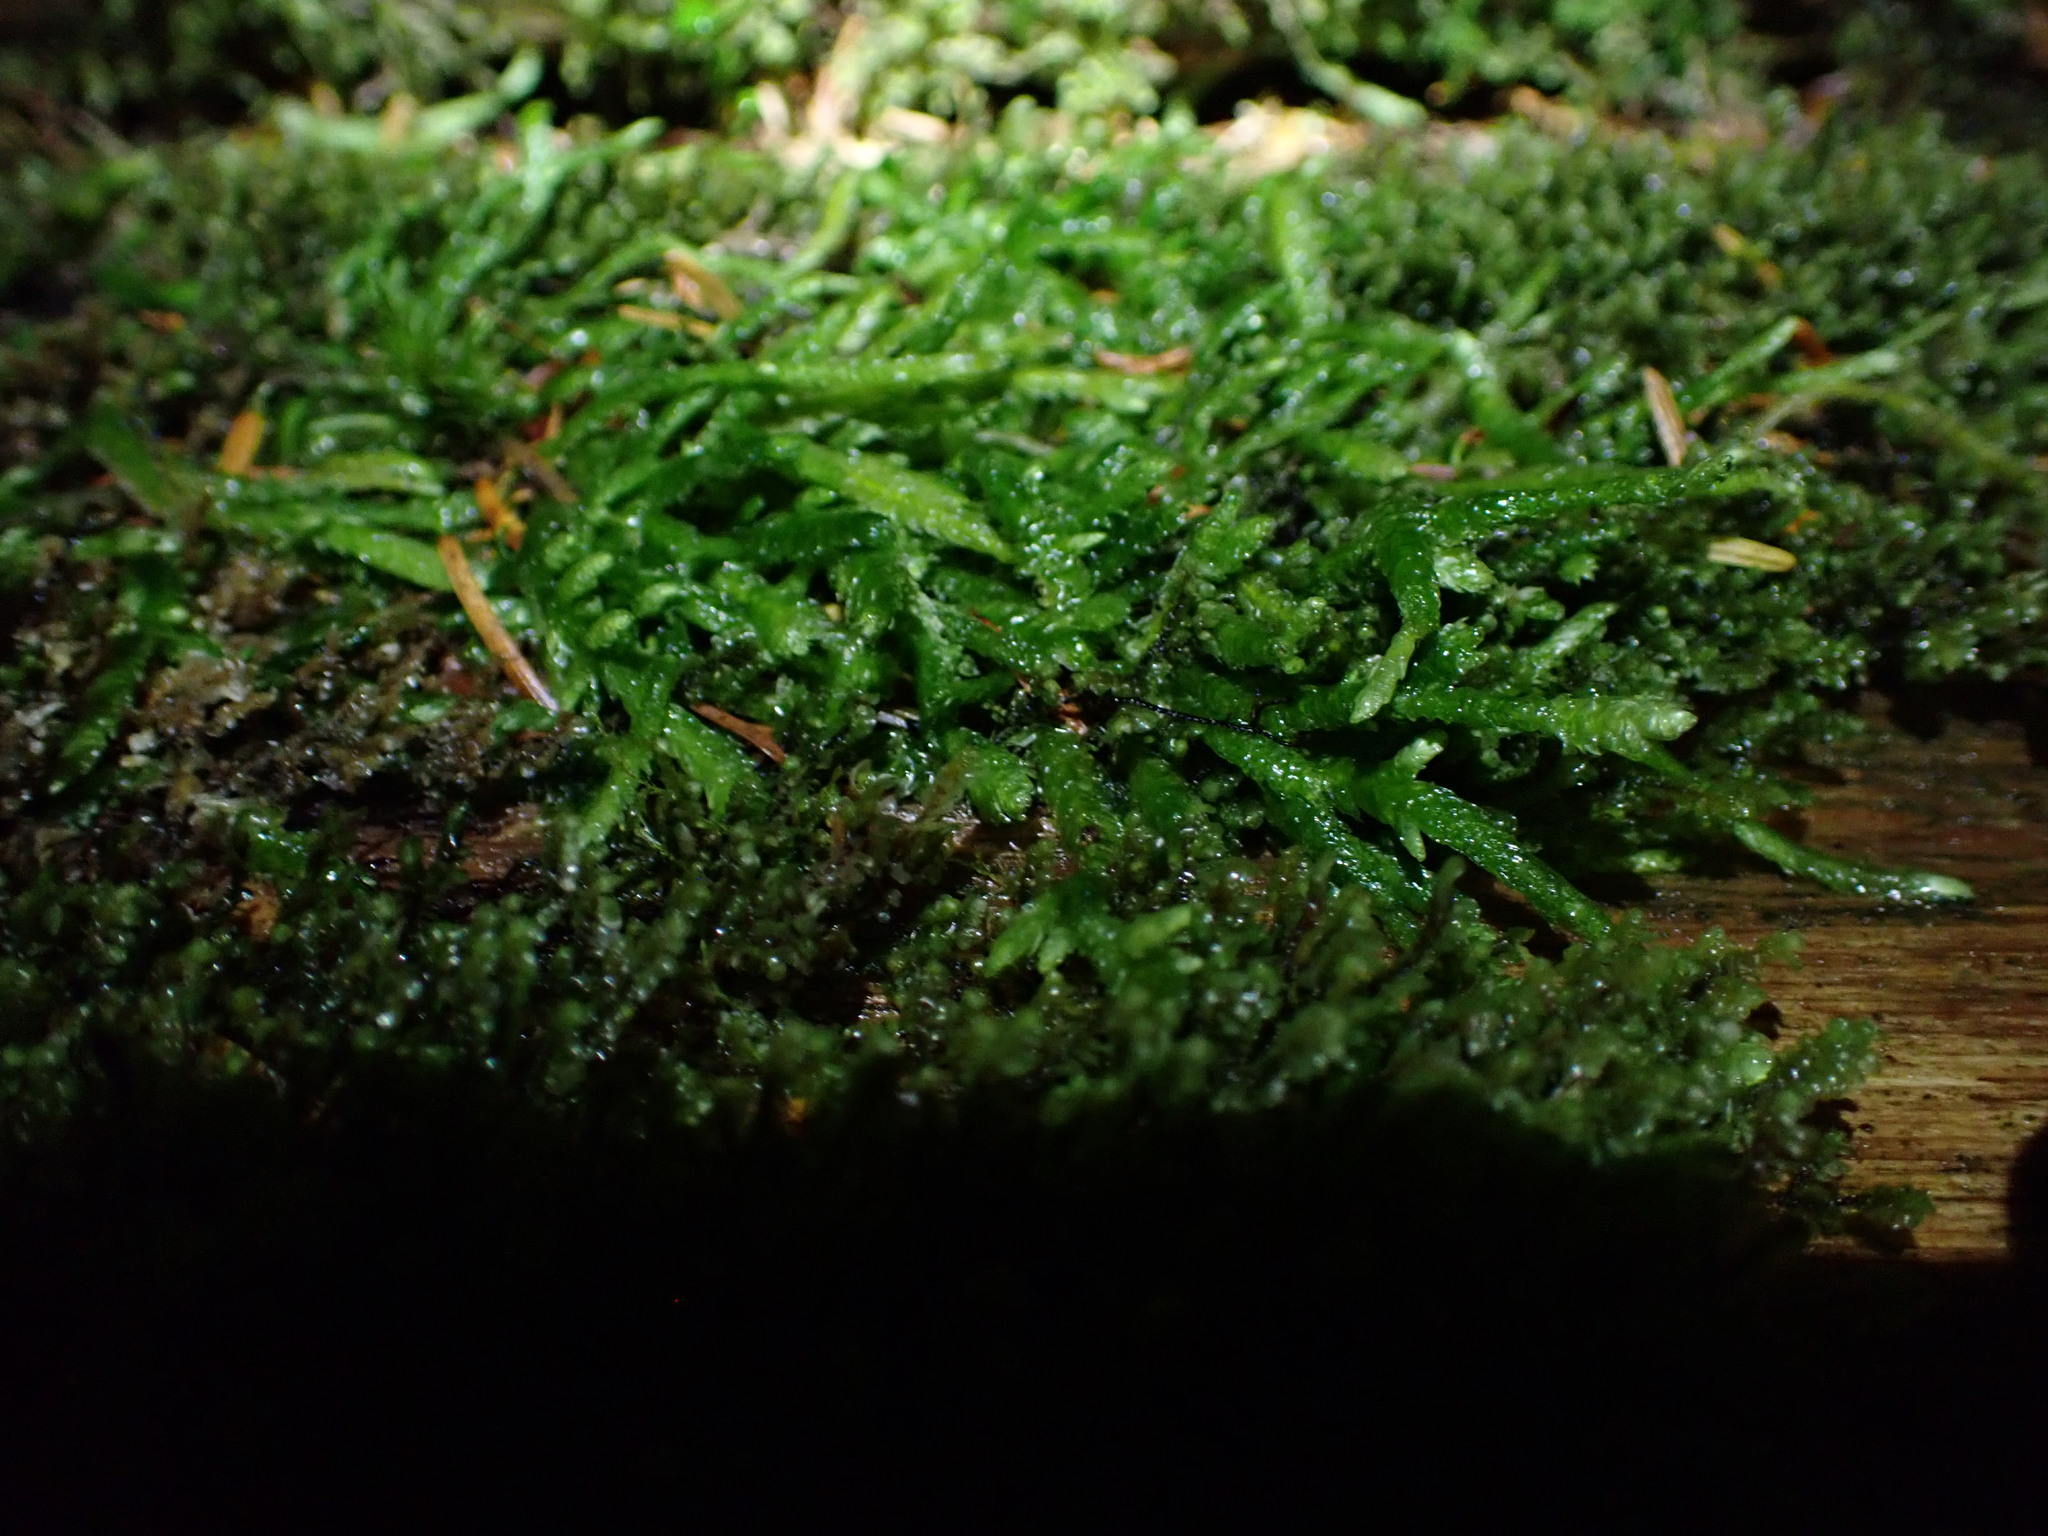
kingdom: Plantae
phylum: Bryophyta
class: Bryopsida
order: Hypnales
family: Plagiotheciaceae
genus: Plagiothecium
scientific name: Plagiothecium undulatum
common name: Waved silk-moss
